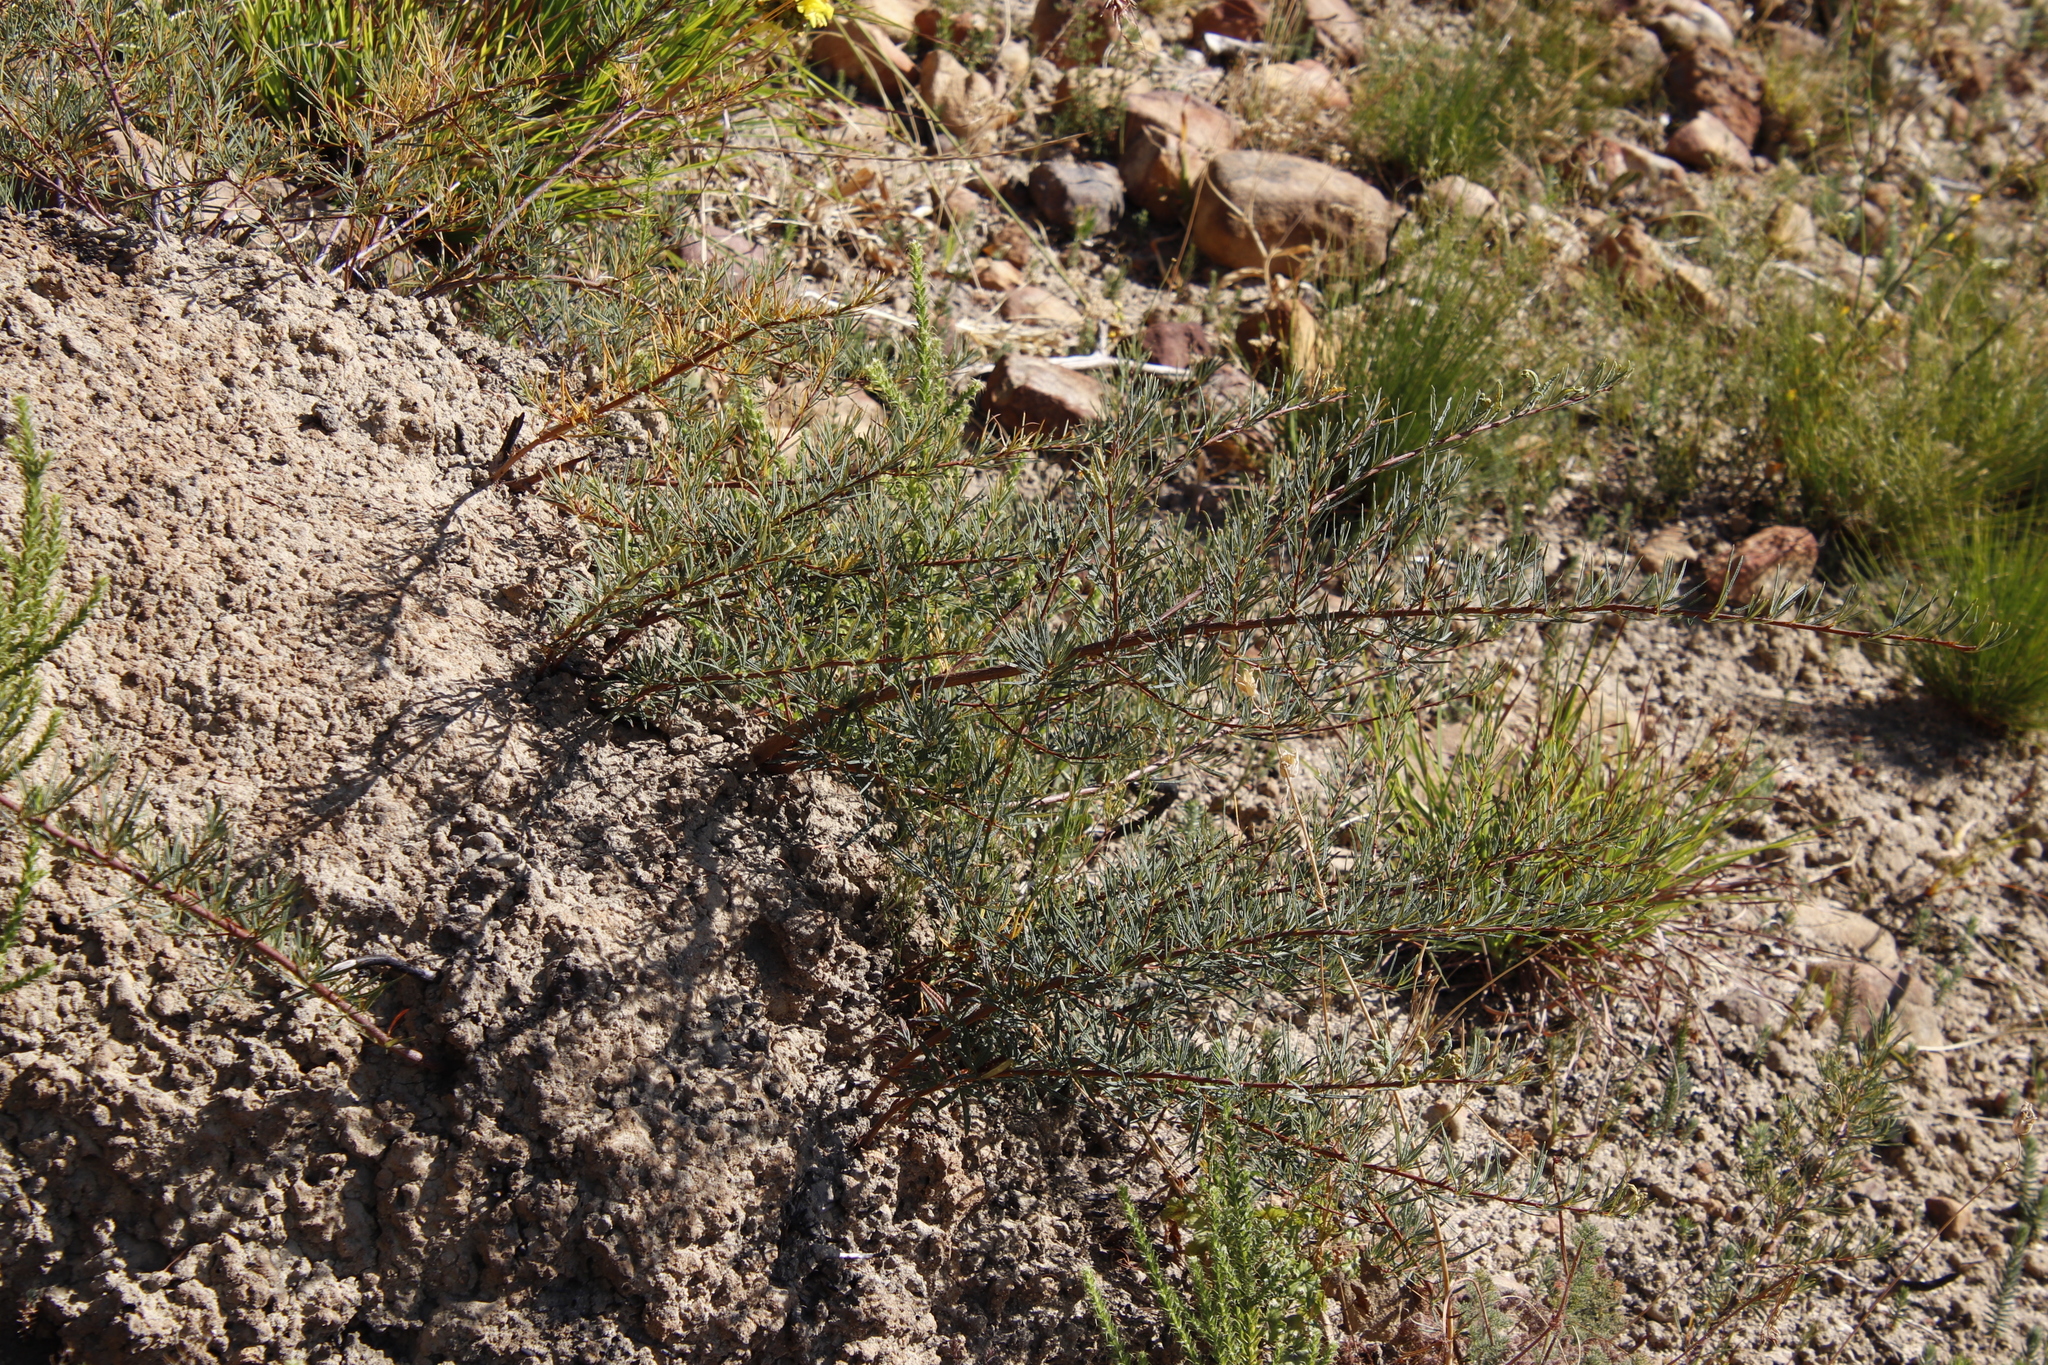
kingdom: Plantae
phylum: Tracheophyta
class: Magnoliopsida
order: Sapindales
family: Anacardiaceae
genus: Searsia
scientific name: Searsia rosmarinifolia
